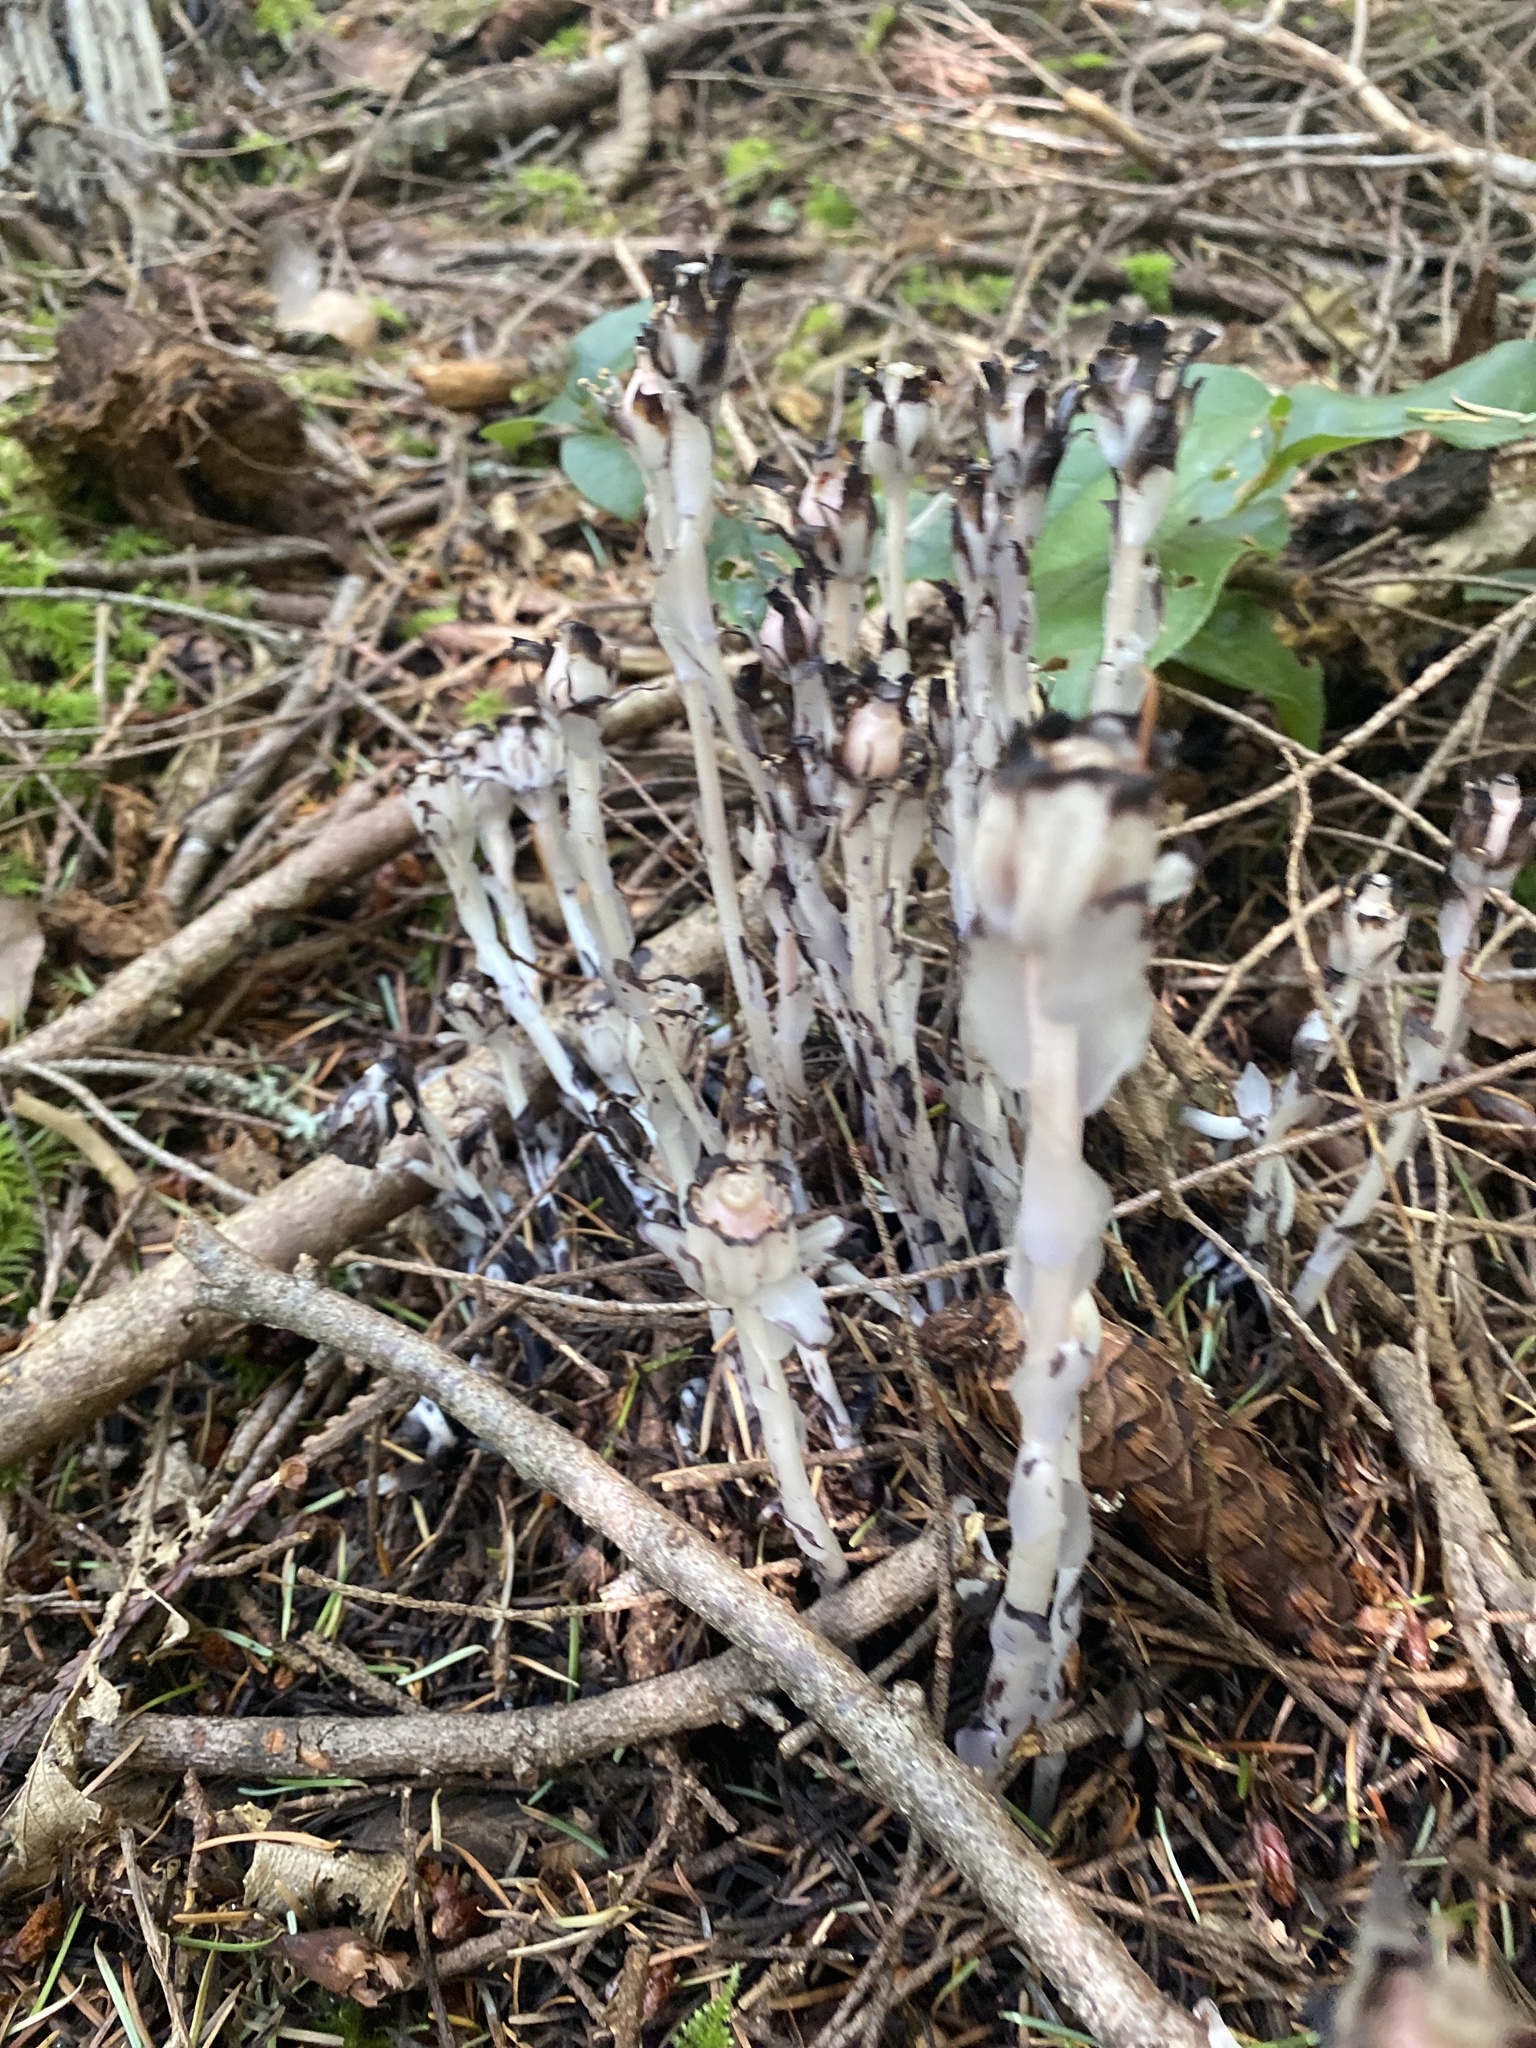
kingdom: Plantae
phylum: Tracheophyta
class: Magnoliopsida
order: Ericales
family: Ericaceae
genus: Monotropa
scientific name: Monotropa uniflora
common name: Convulsion root
